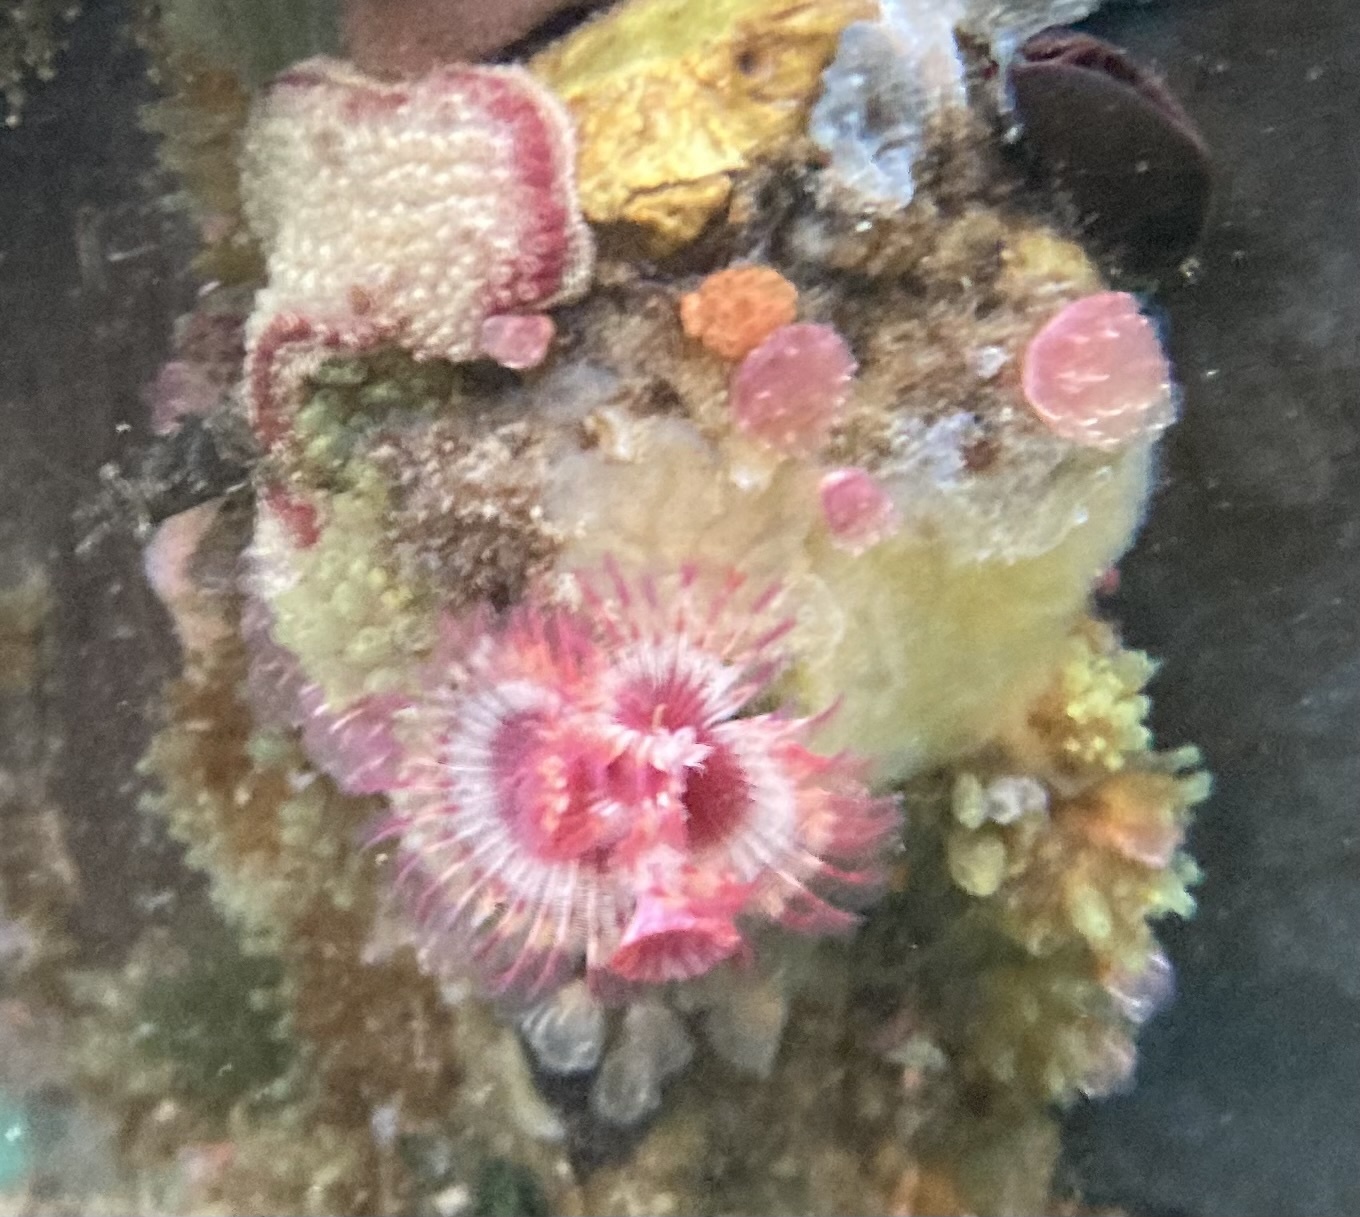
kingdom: Animalia
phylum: Annelida
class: Polychaeta
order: Sabellida
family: Serpulidae
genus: Serpula
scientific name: Serpula columbiana
